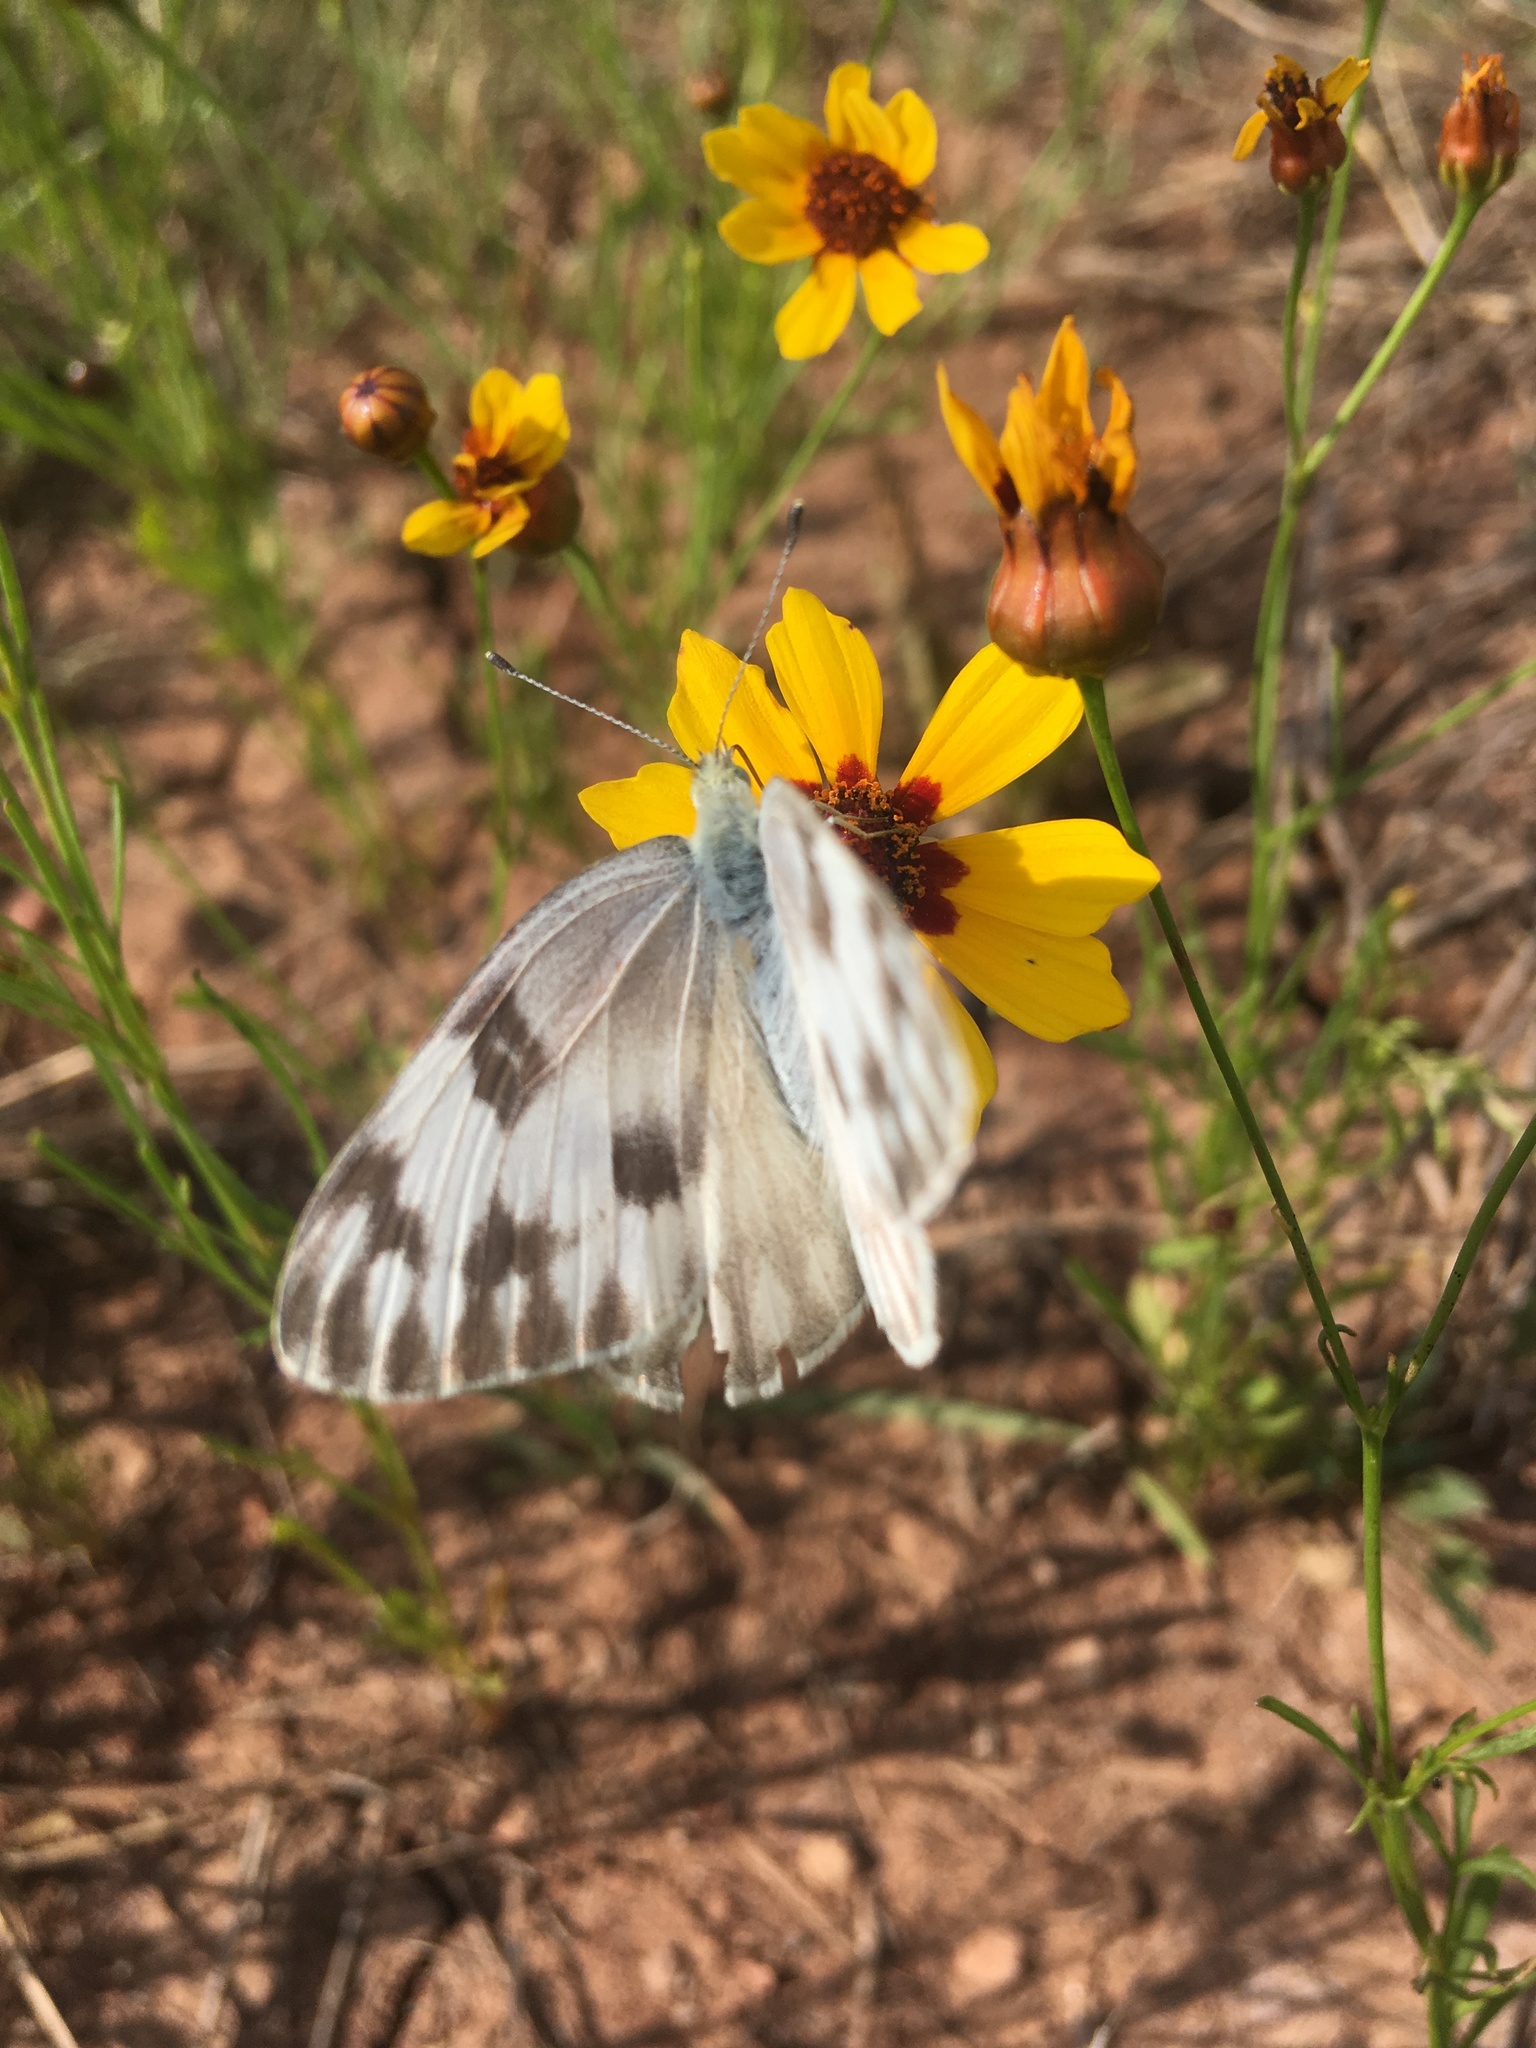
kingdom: Animalia
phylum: Arthropoda
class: Insecta
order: Lepidoptera
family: Pieridae
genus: Pontia
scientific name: Pontia protodice
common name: Checkered white
